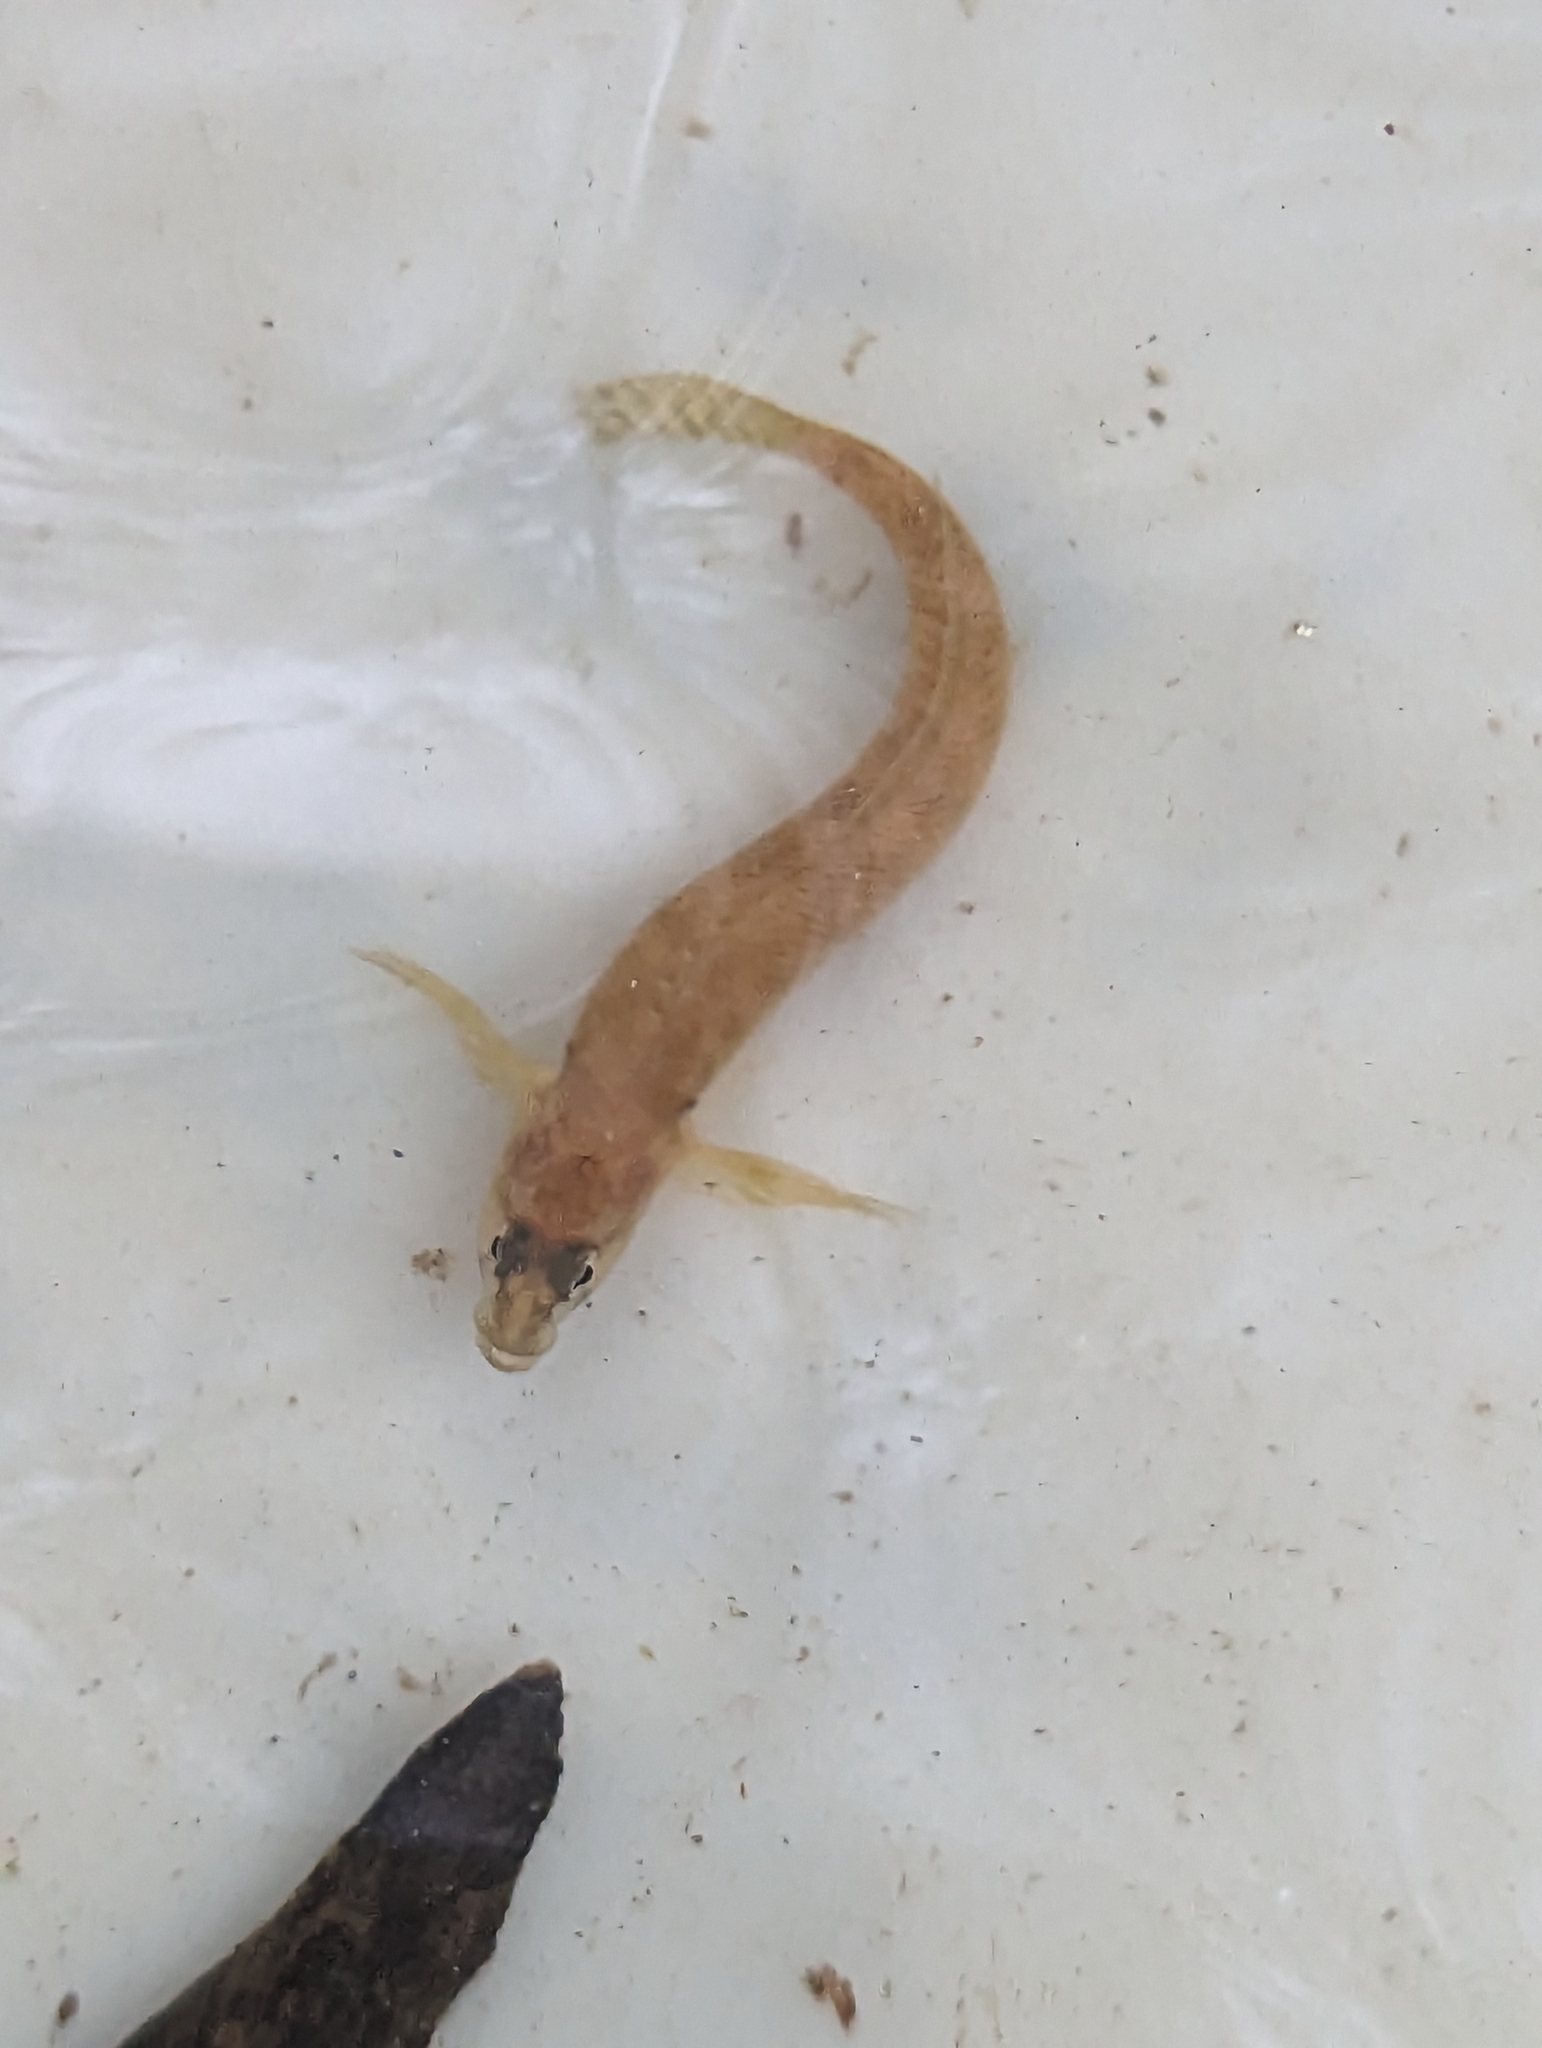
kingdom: Animalia
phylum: Chordata
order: Perciformes
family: Percidae
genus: Etheostoma
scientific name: Etheostoma flabellare
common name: Fantail darter
